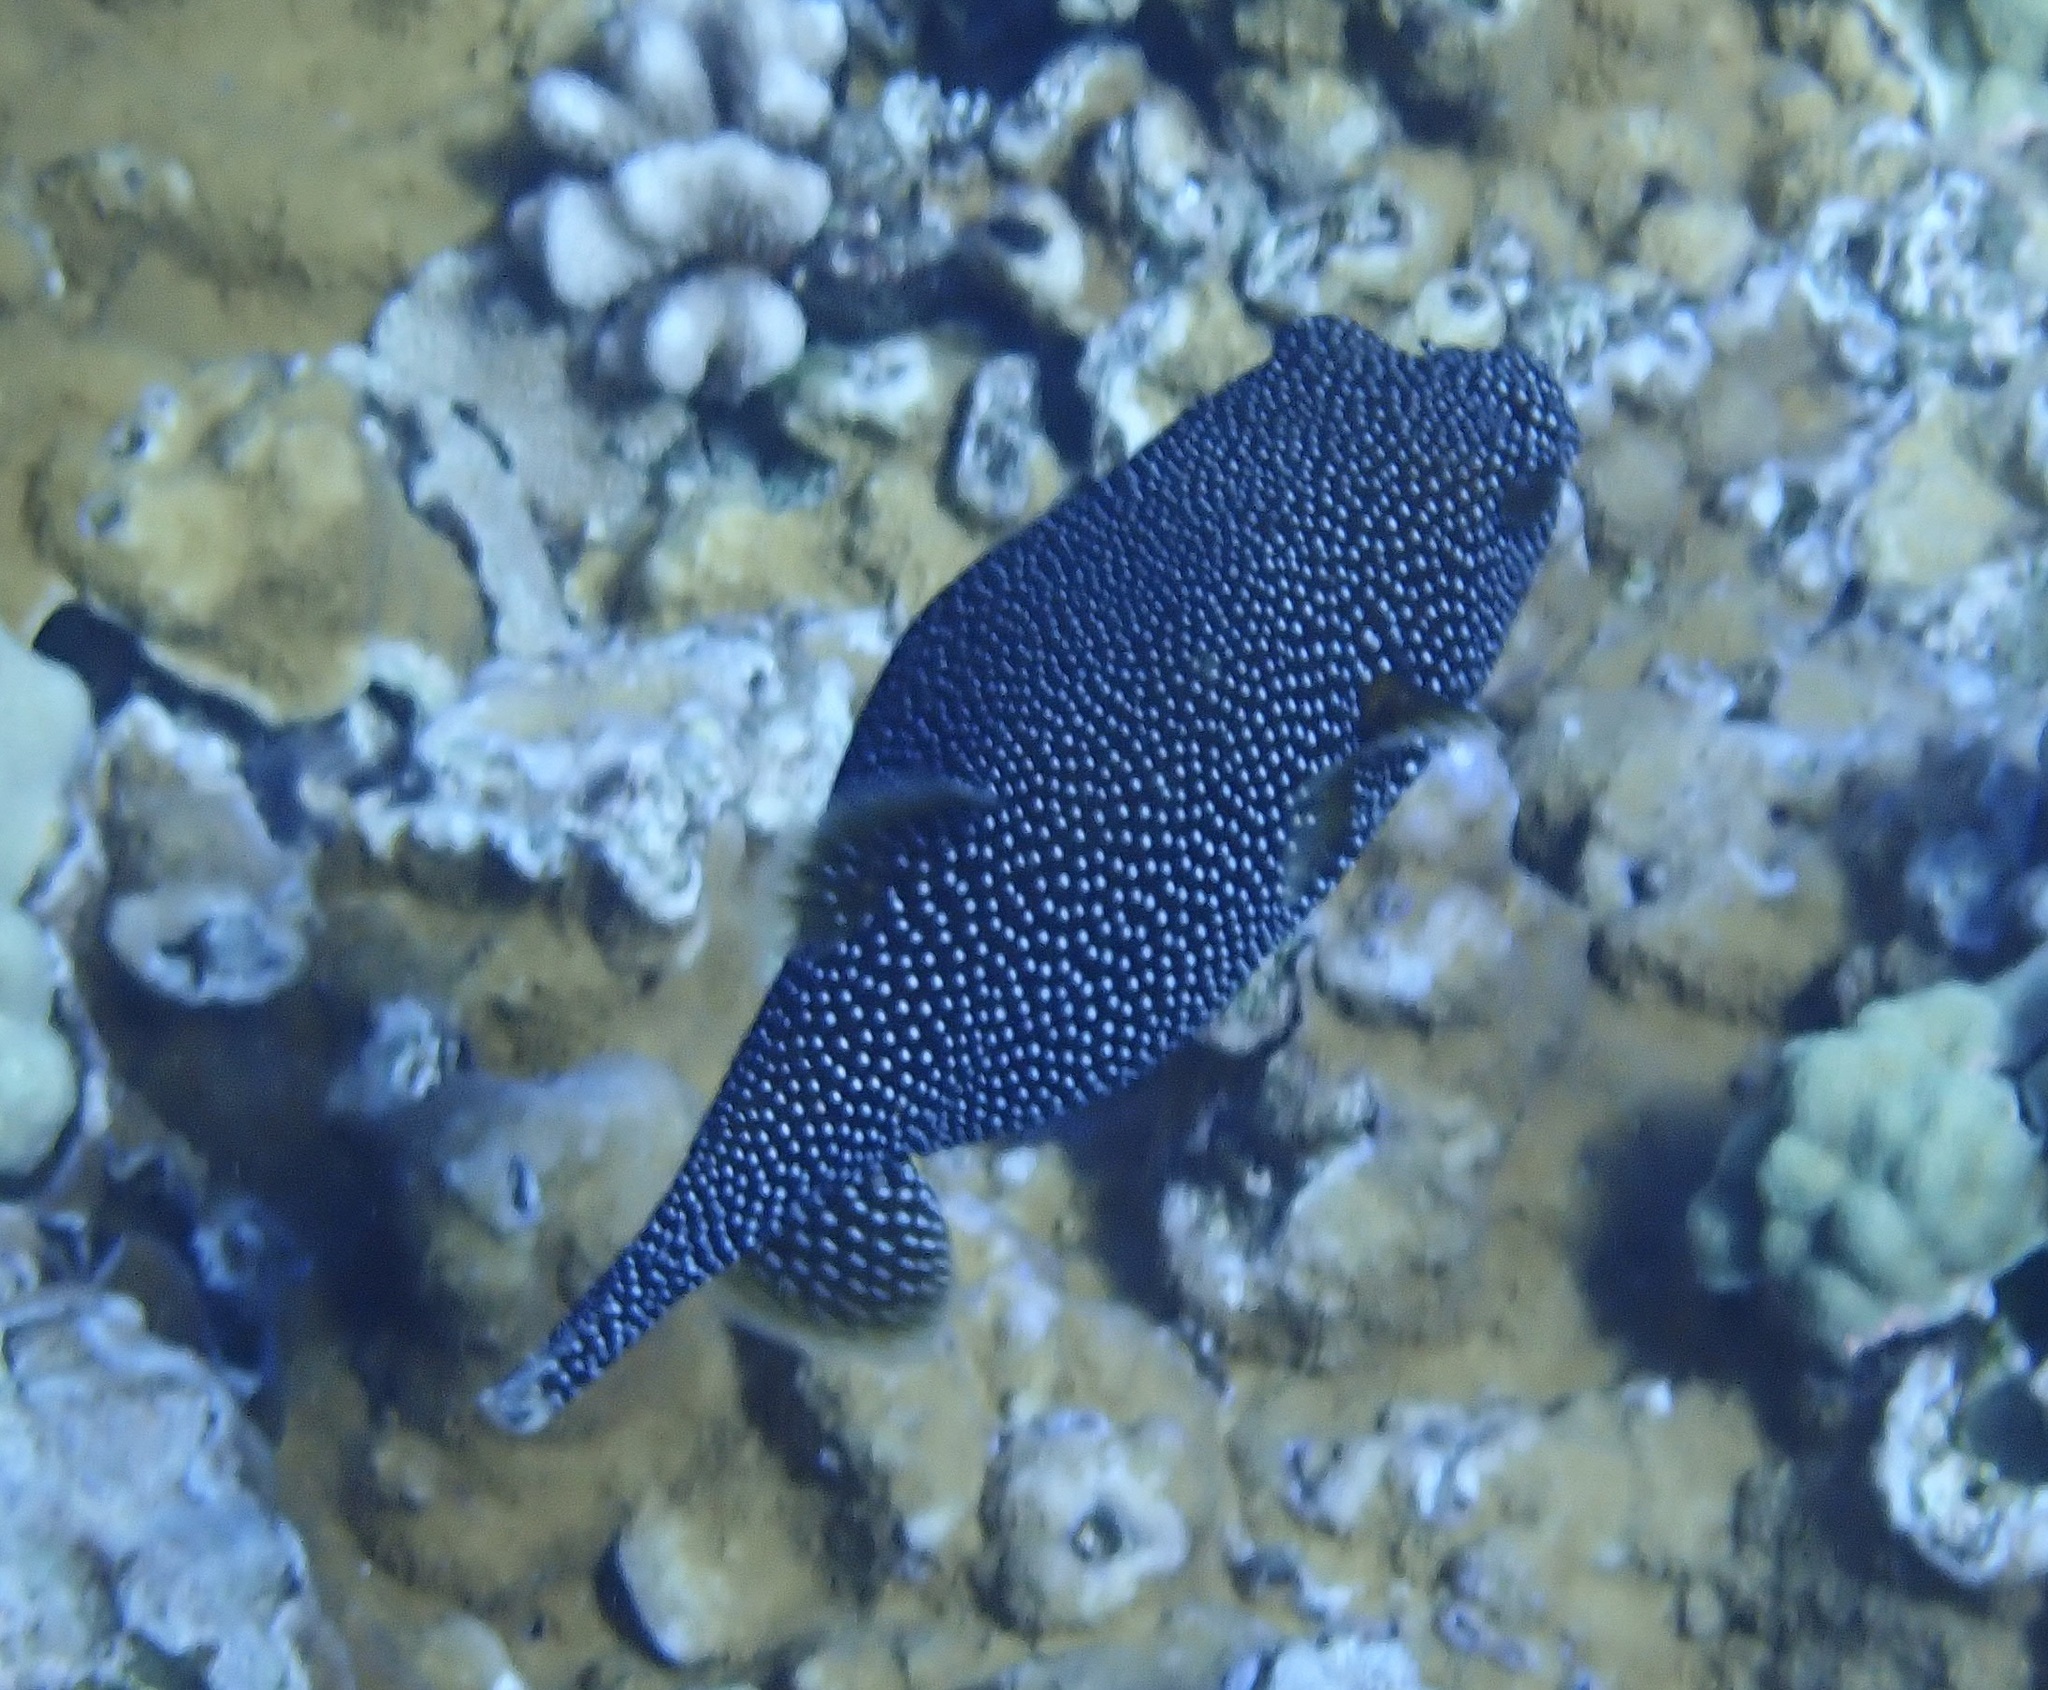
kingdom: Animalia
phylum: Chordata
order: Tetraodontiformes
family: Tetraodontidae
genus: Arothron
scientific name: Arothron meleagris
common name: Guinea-fowl pufferfish
